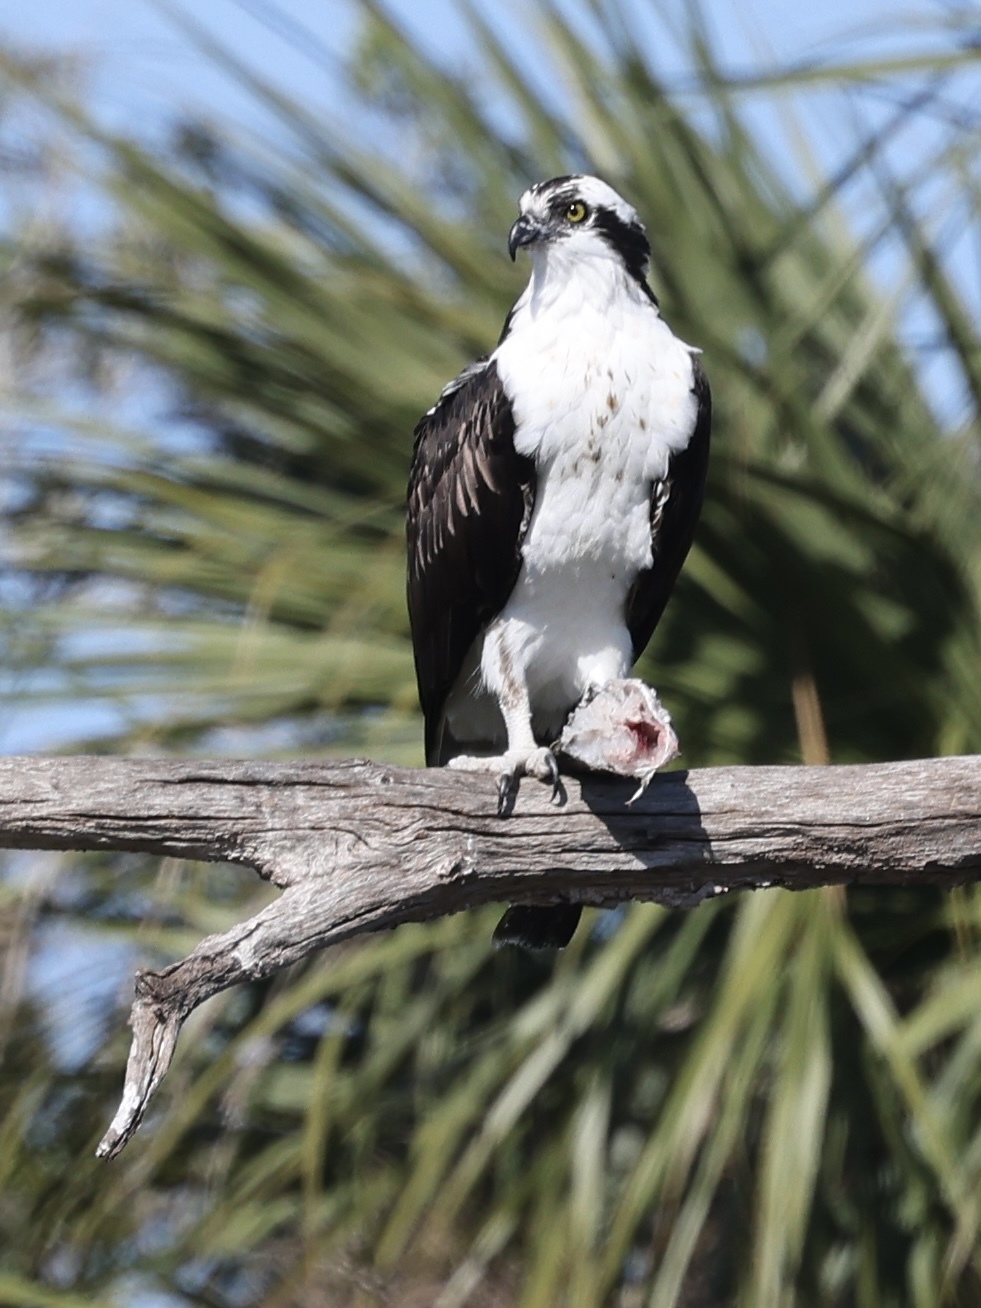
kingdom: Animalia
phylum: Chordata
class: Aves
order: Accipitriformes
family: Pandionidae
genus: Pandion
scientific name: Pandion haliaetus
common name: Osprey
